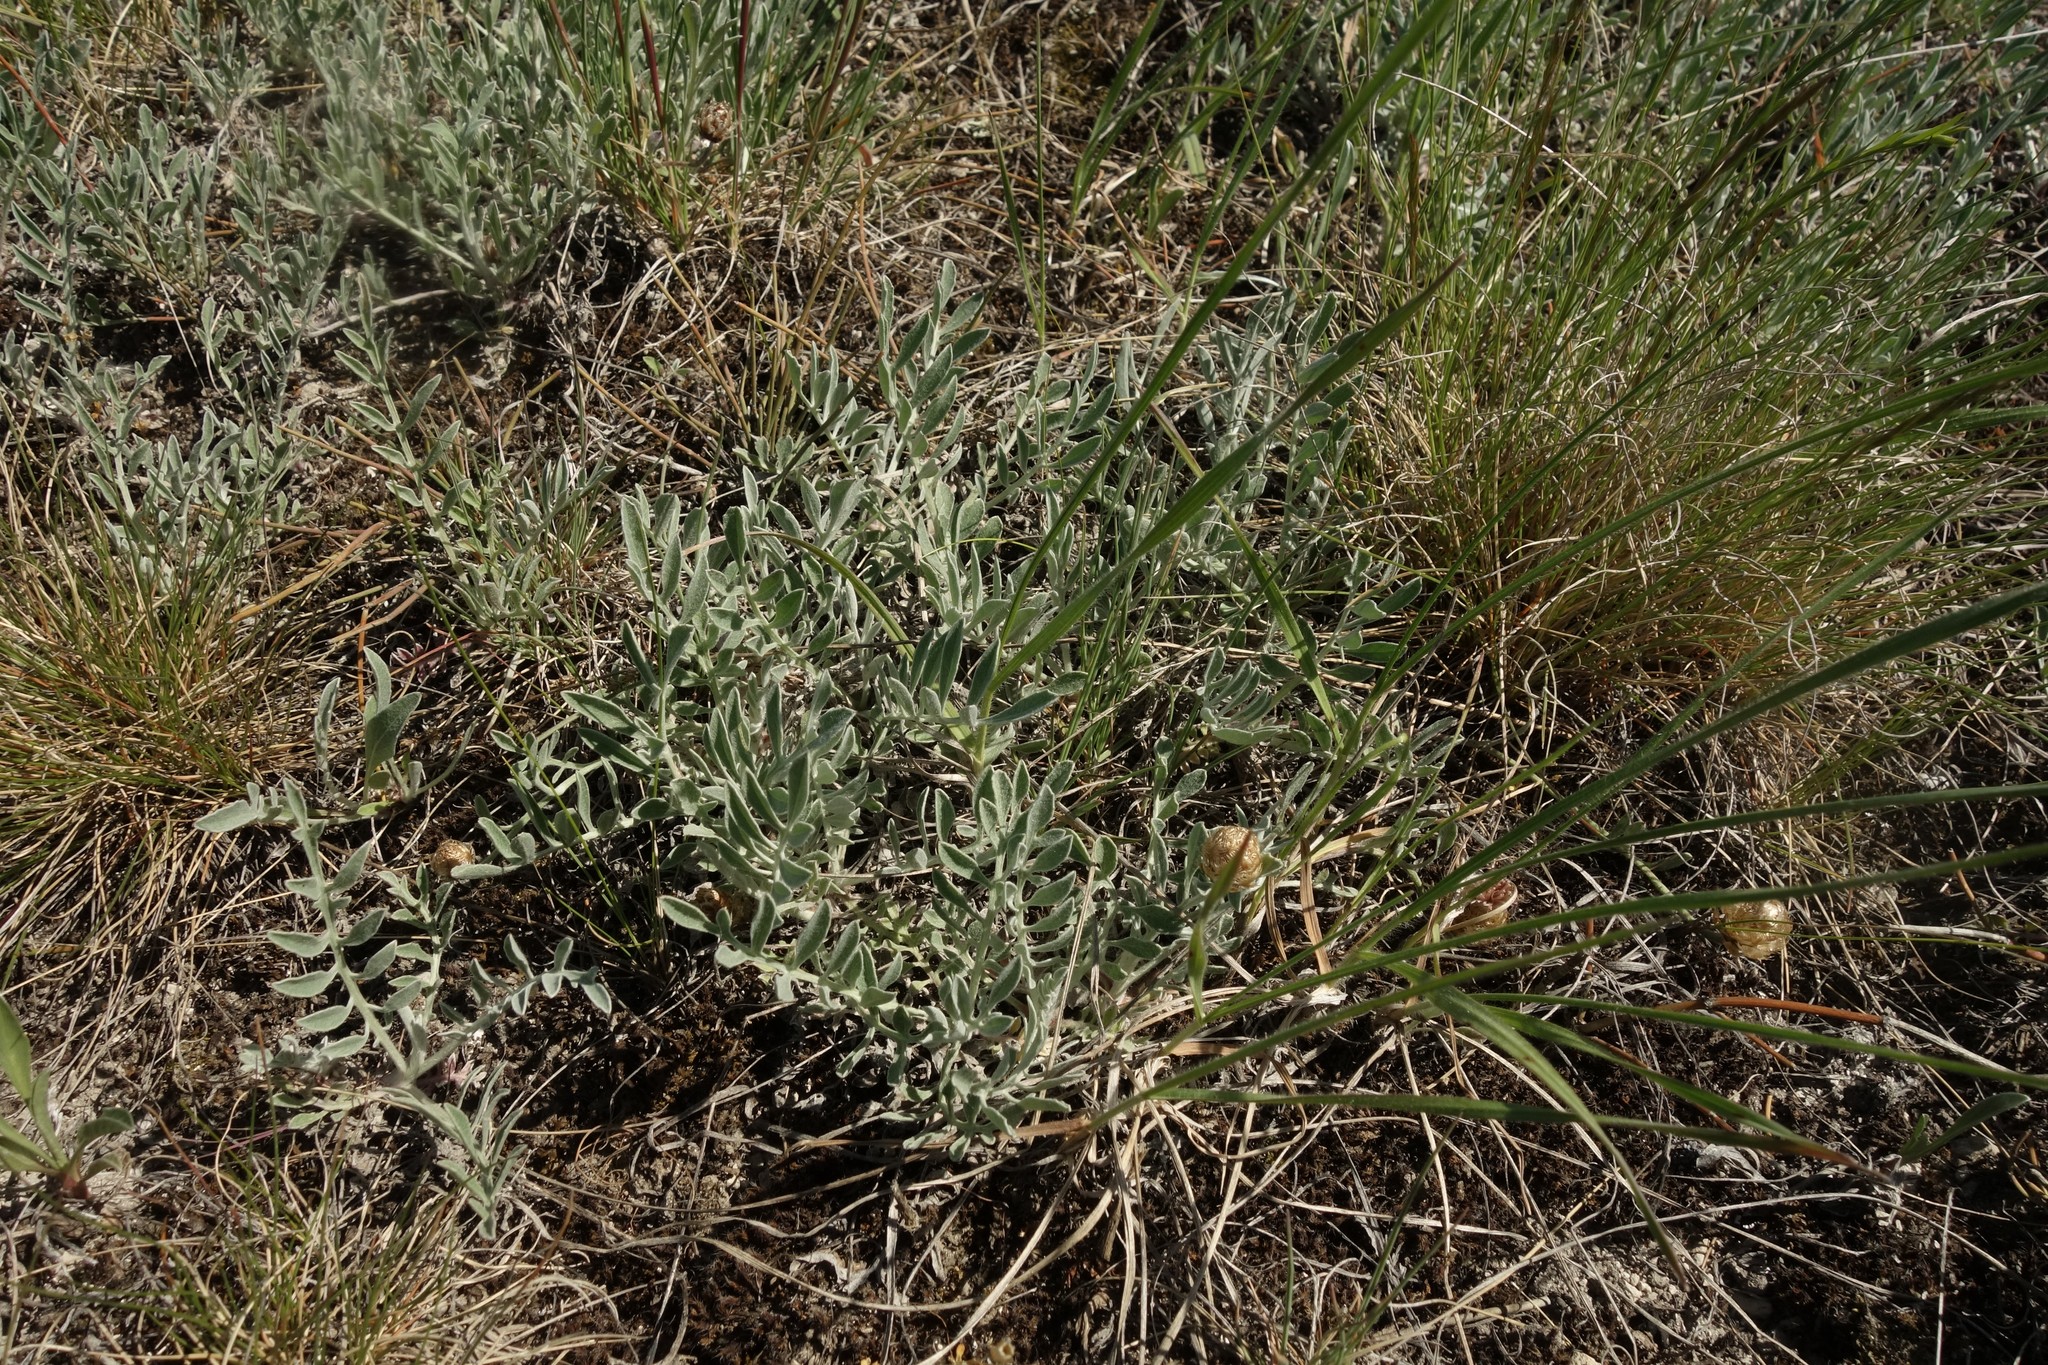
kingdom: Plantae
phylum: Tracheophyta
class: Magnoliopsida
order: Asterales
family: Asteraceae
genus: Psephellus
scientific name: Psephellus marschallianus
